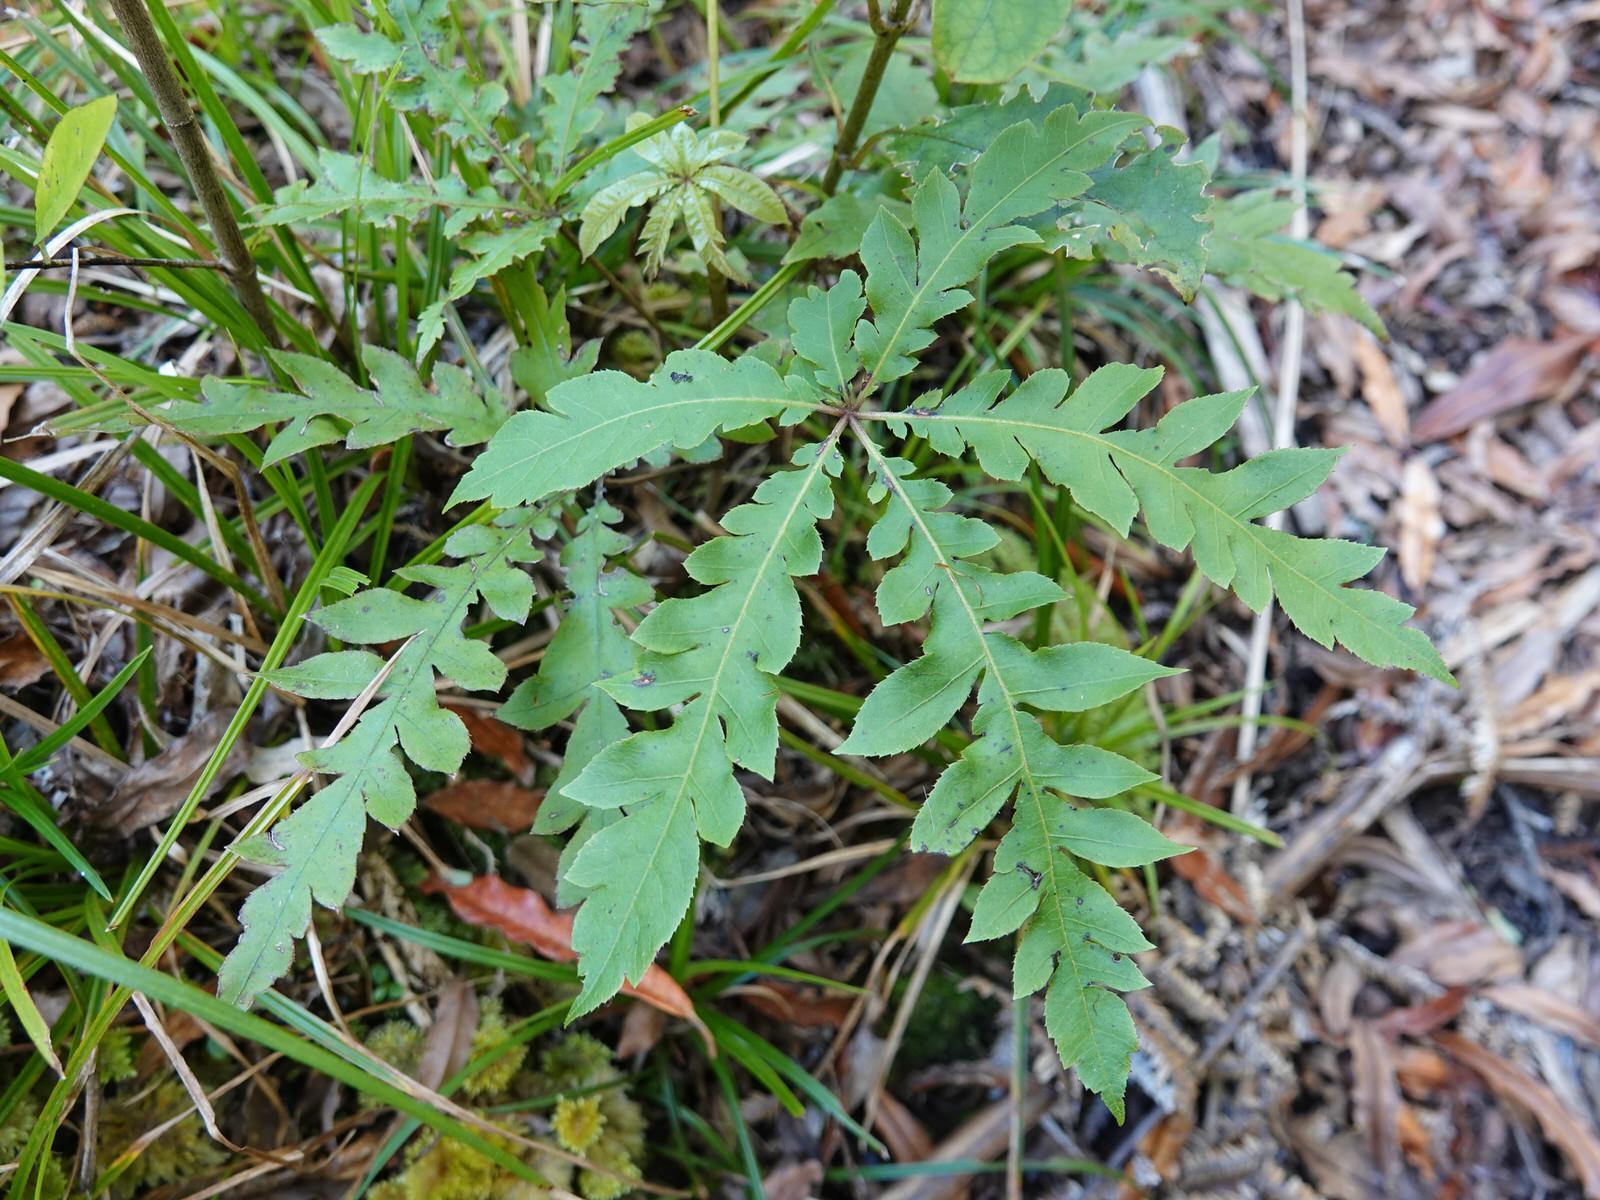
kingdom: Plantae
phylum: Tracheophyta
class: Magnoliopsida
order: Apiales
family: Araliaceae
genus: Schefflera
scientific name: Schefflera digitata
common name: Pate
